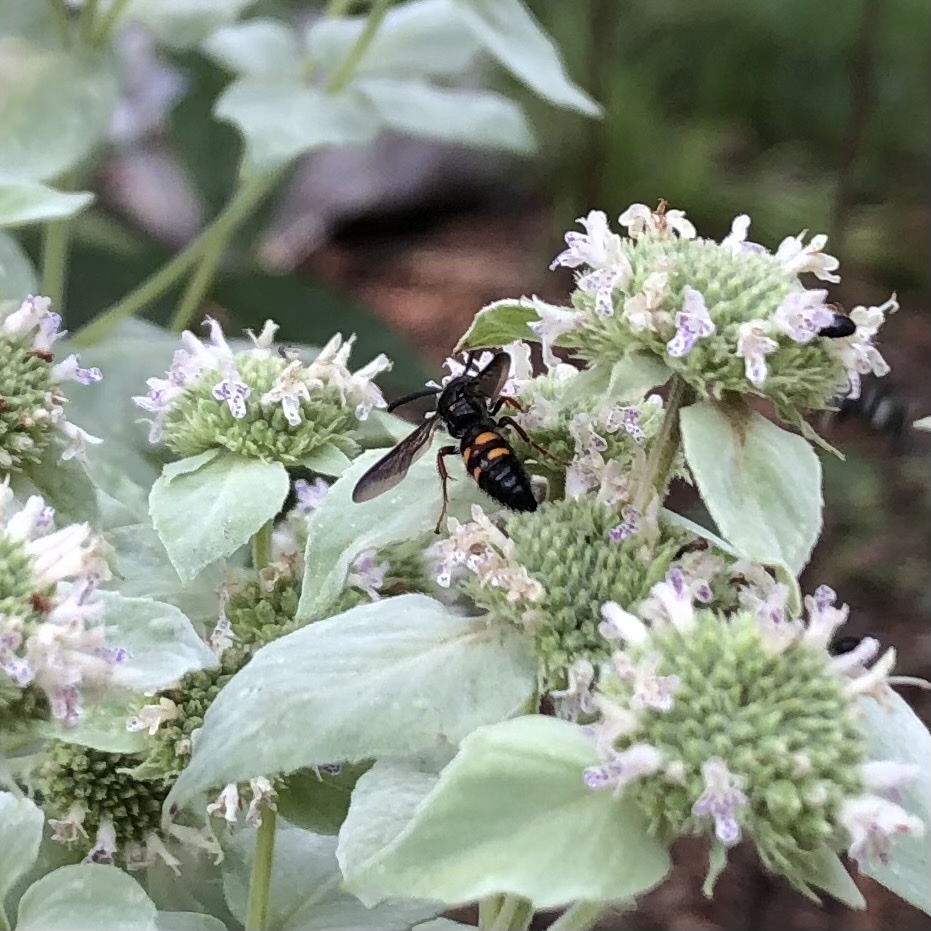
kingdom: Animalia
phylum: Arthropoda
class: Insecta
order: Hymenoptera
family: Scoliidae
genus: Scolia
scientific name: Scolia nobilitata
